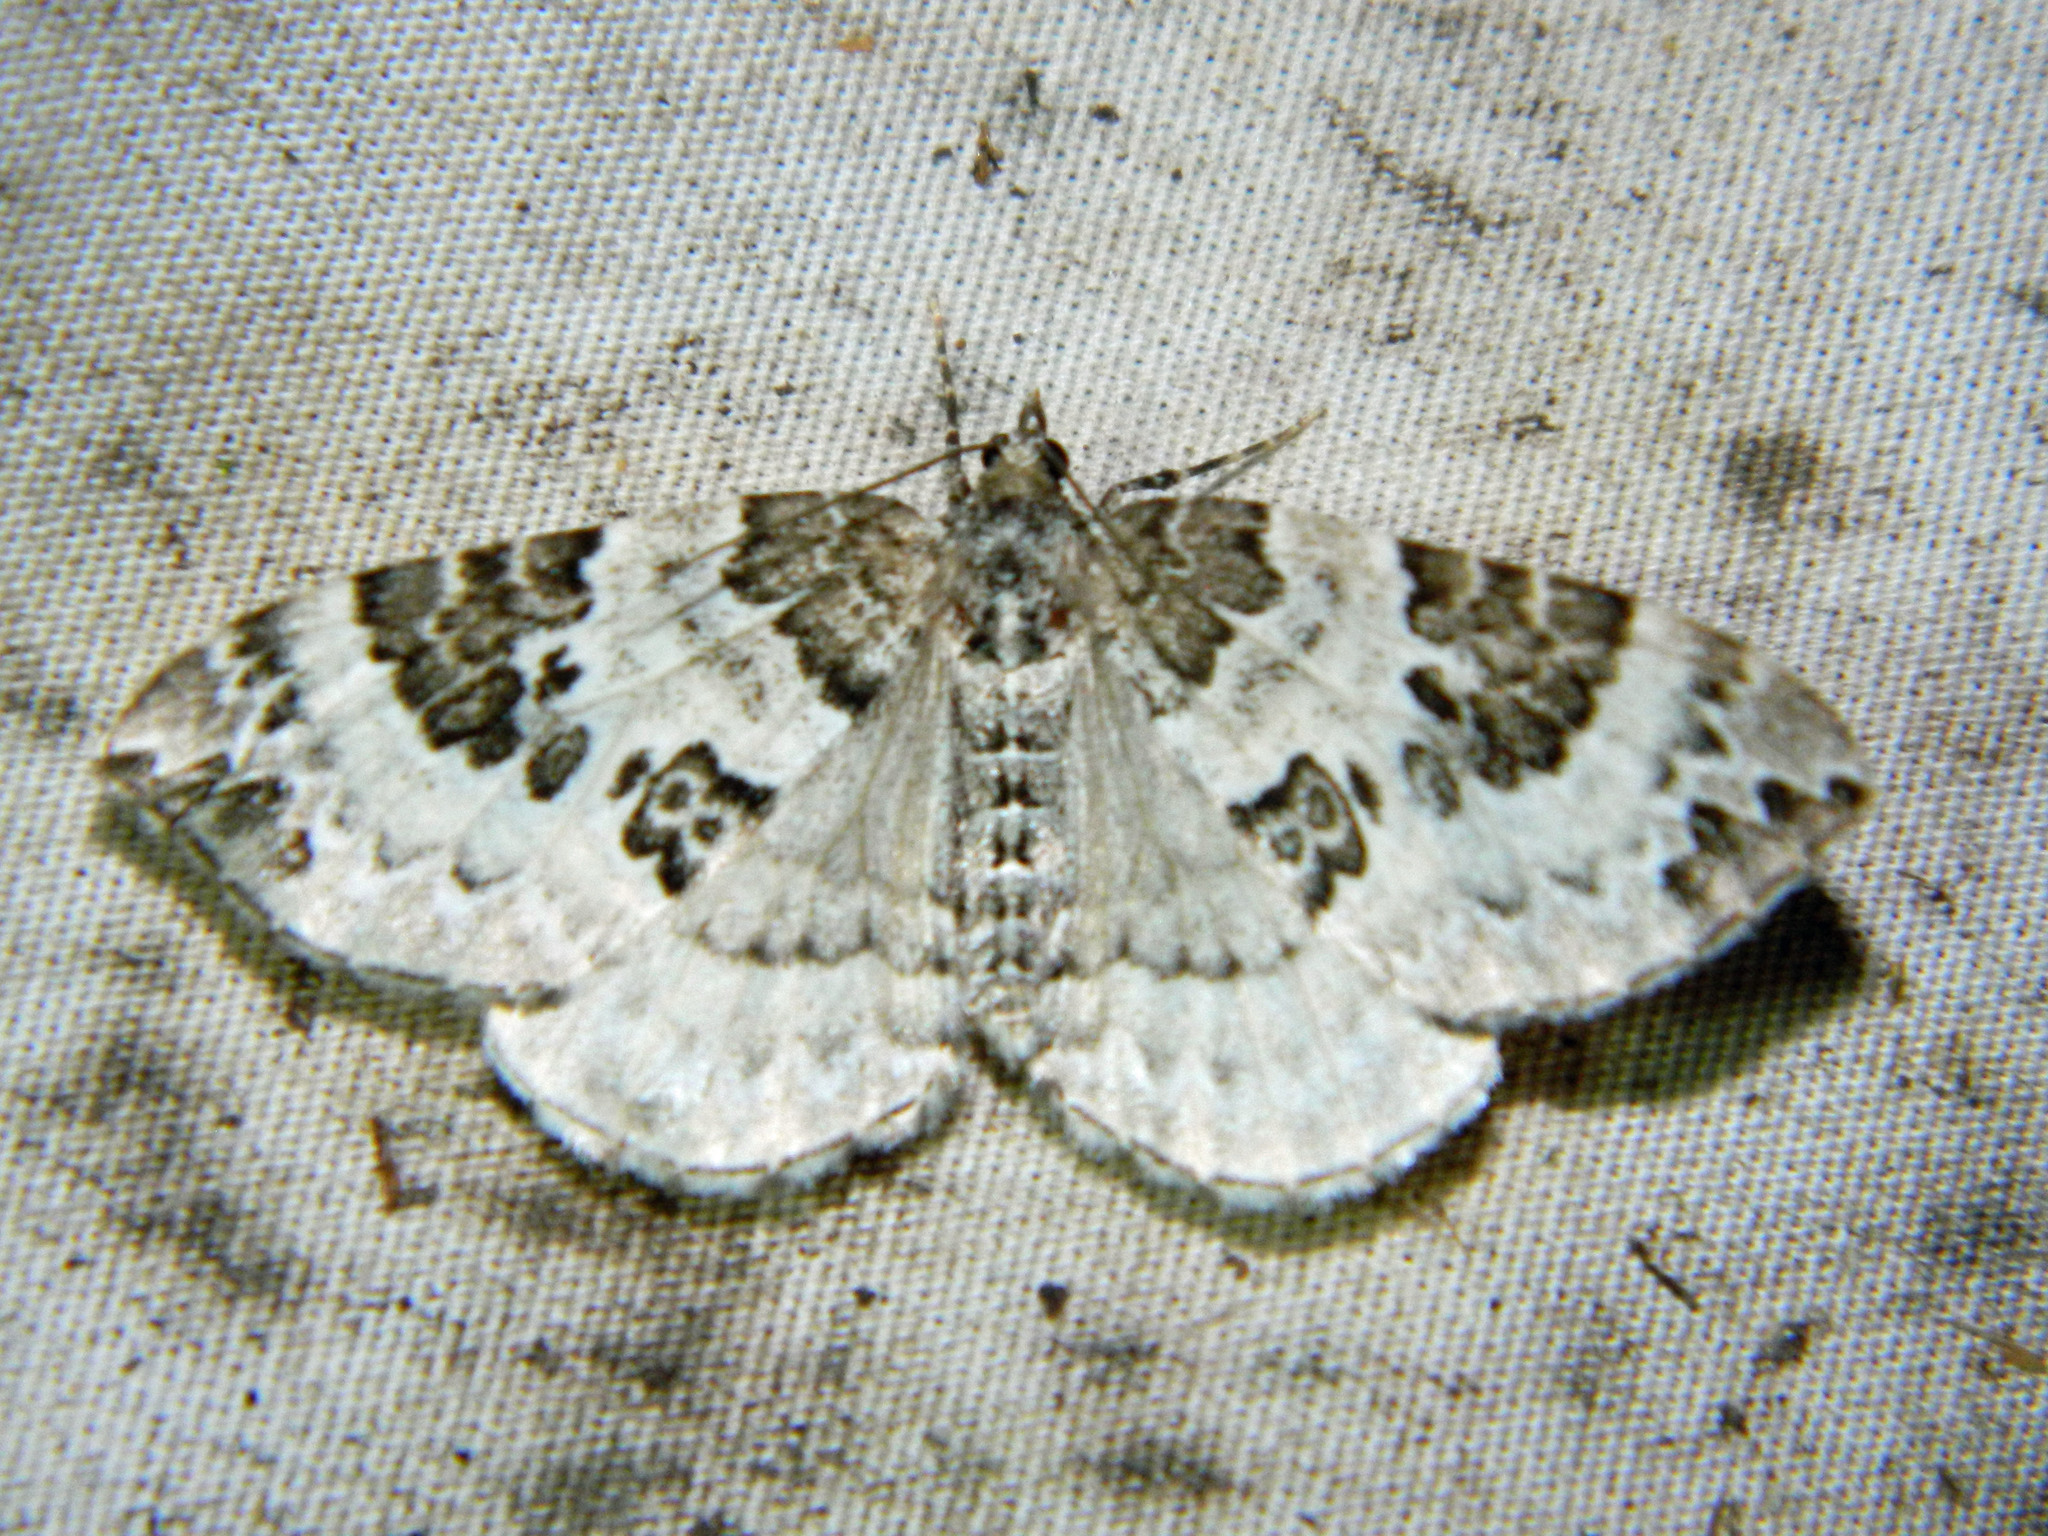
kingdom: Animalia
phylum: Arthropoda
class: Insecta
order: Lepidoptera
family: Geometridae
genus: Eulithis
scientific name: Eulithis explanata
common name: White eulithis
